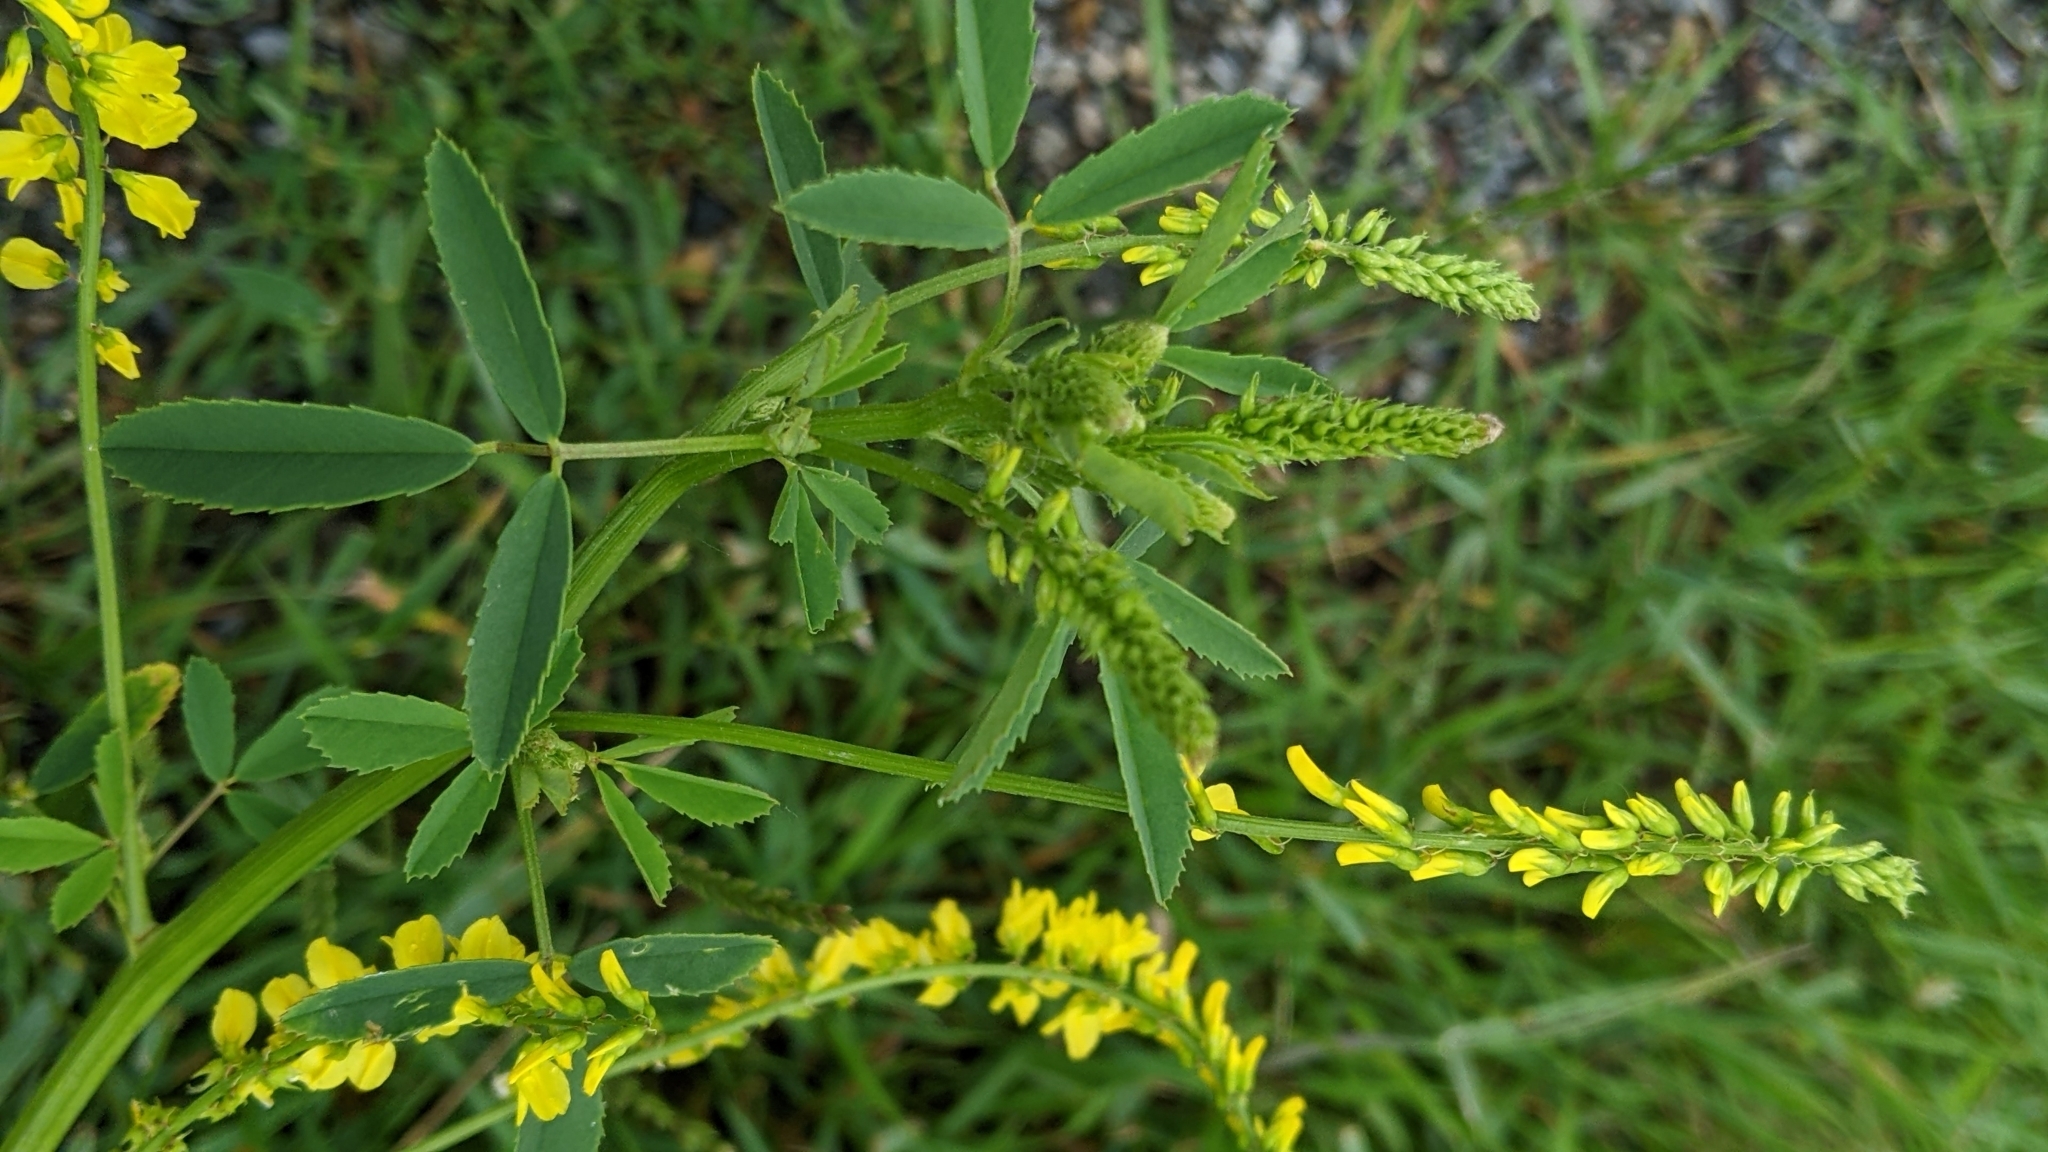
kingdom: Plantae
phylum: Tracheophyta
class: Magnoliopsida
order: Fabales
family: Fabaceae
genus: Melilotus
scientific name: Melilotus officinalis
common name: Sweetclover
